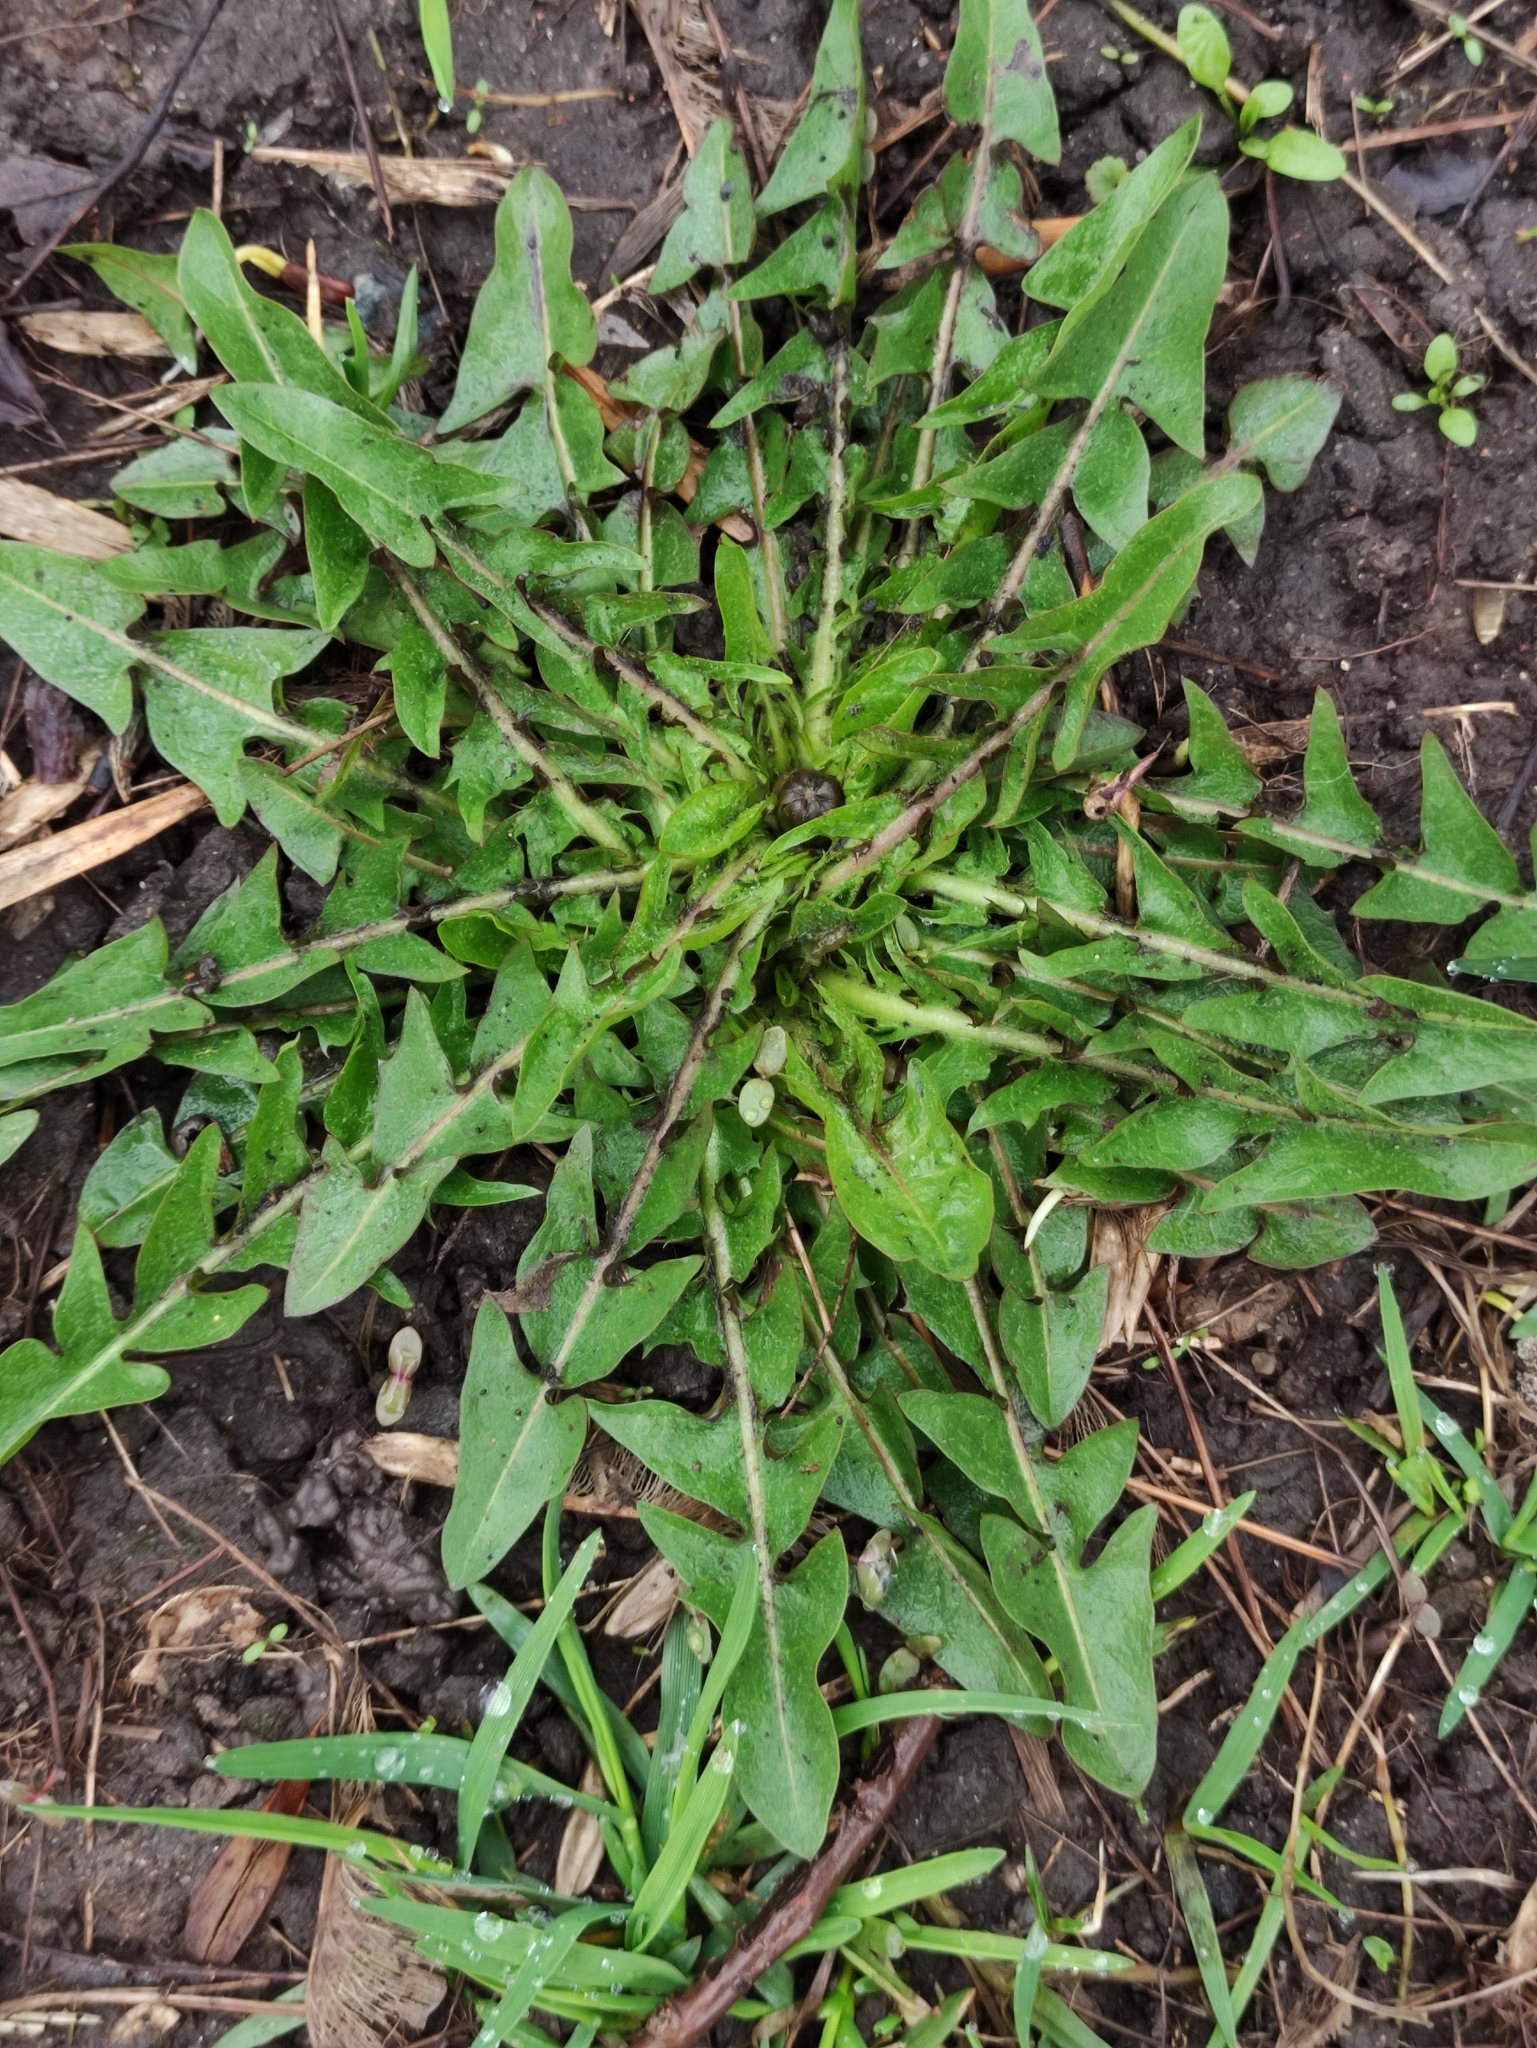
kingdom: Plantae
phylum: Tracheophyta
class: Magnoliopsida
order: Asterales
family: Asteraceae
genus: Taraxacum
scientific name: Taraxacum officinale
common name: Common dandelion
